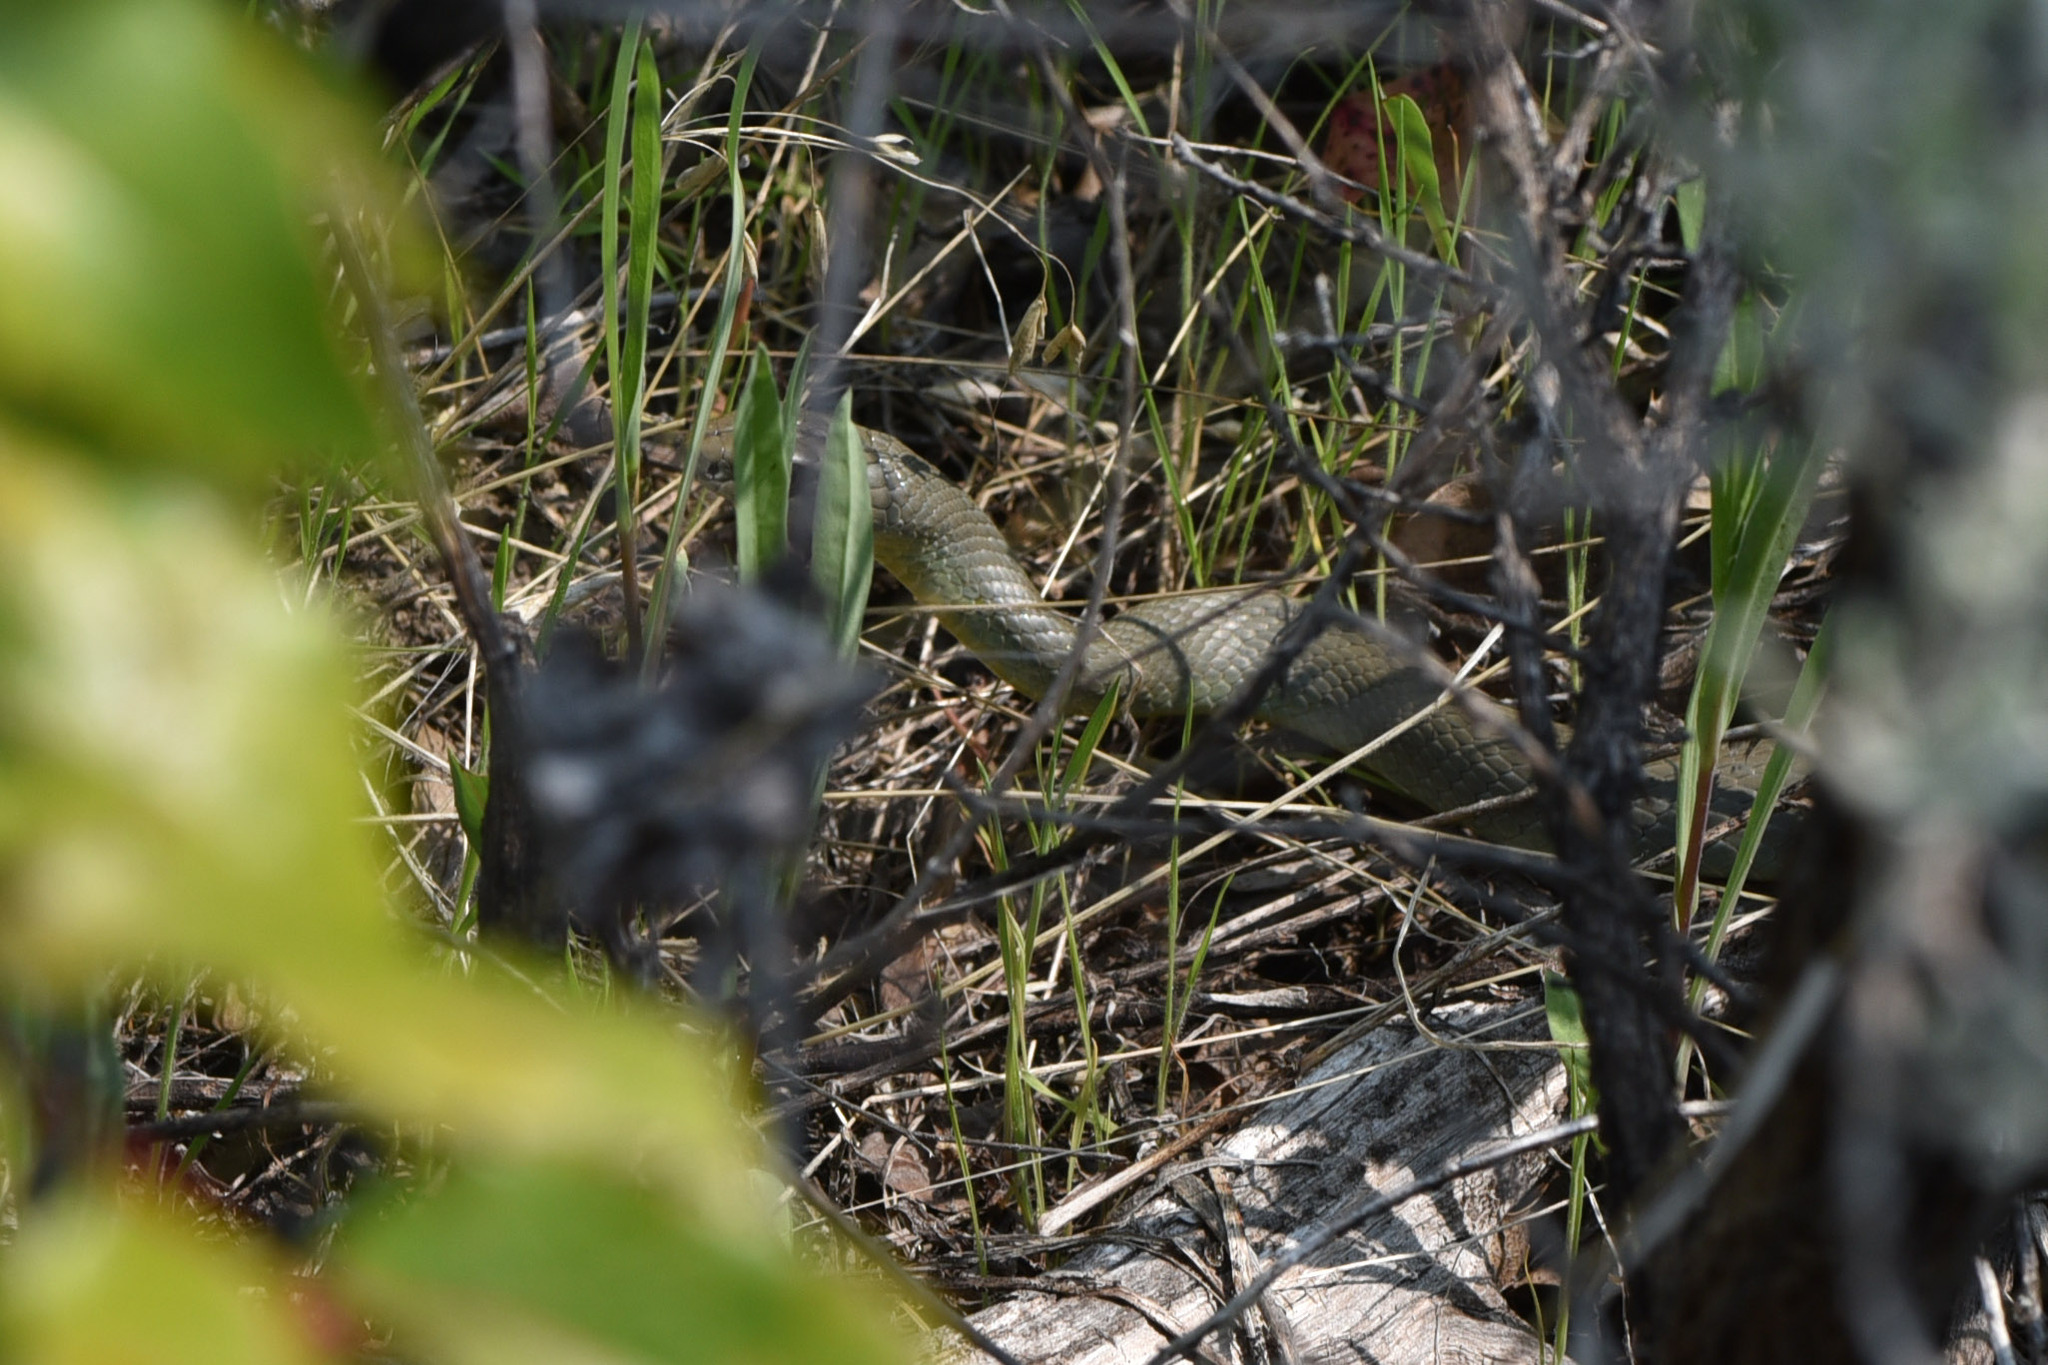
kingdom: Animalia
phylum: Chordata
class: Squamata
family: Colubridae
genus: Coluber
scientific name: Coluber constrictor
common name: Eastern racer
